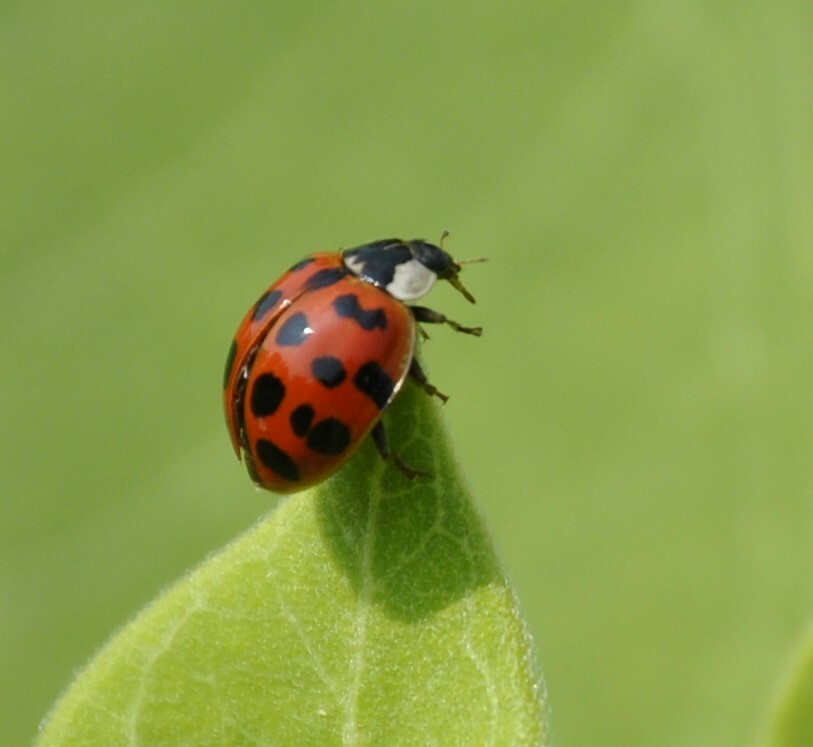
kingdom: Animalia
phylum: Arthropoda
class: Insecta
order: Coleoptera
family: Coccinellidae
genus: Harmonia
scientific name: Harmonia axyridis
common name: Harlequin ladybird
